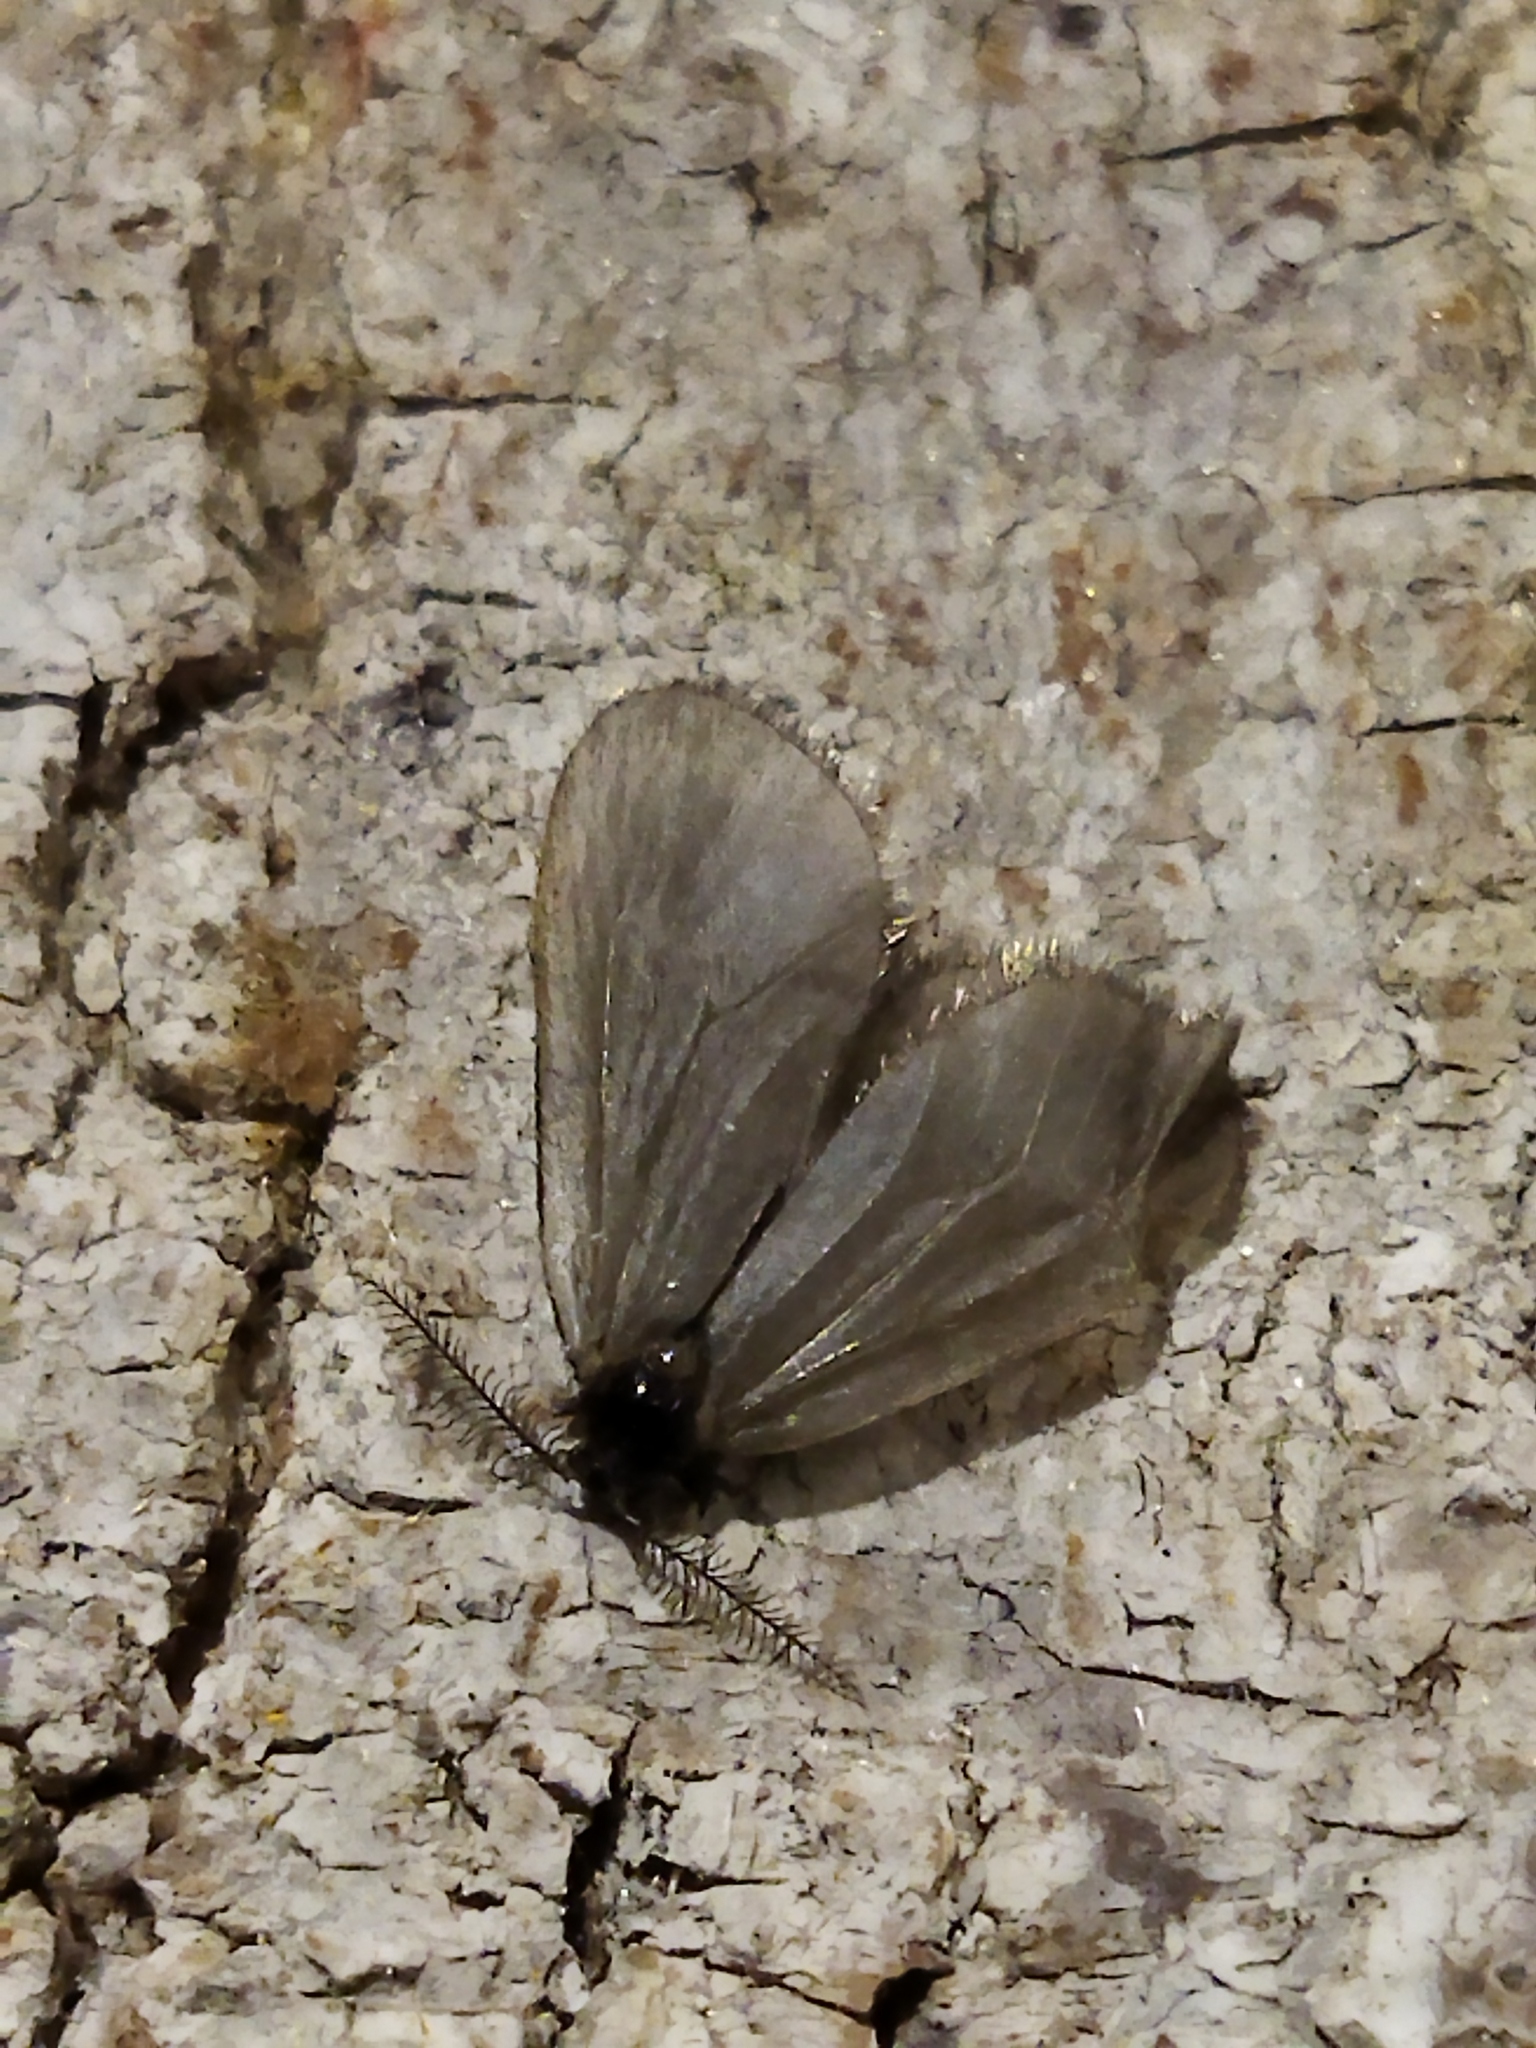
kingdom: Animalia
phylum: Arthropoda
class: Insecta
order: Lepidoptera
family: Psychidae
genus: Rebelia
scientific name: Rebelia perlucidella
